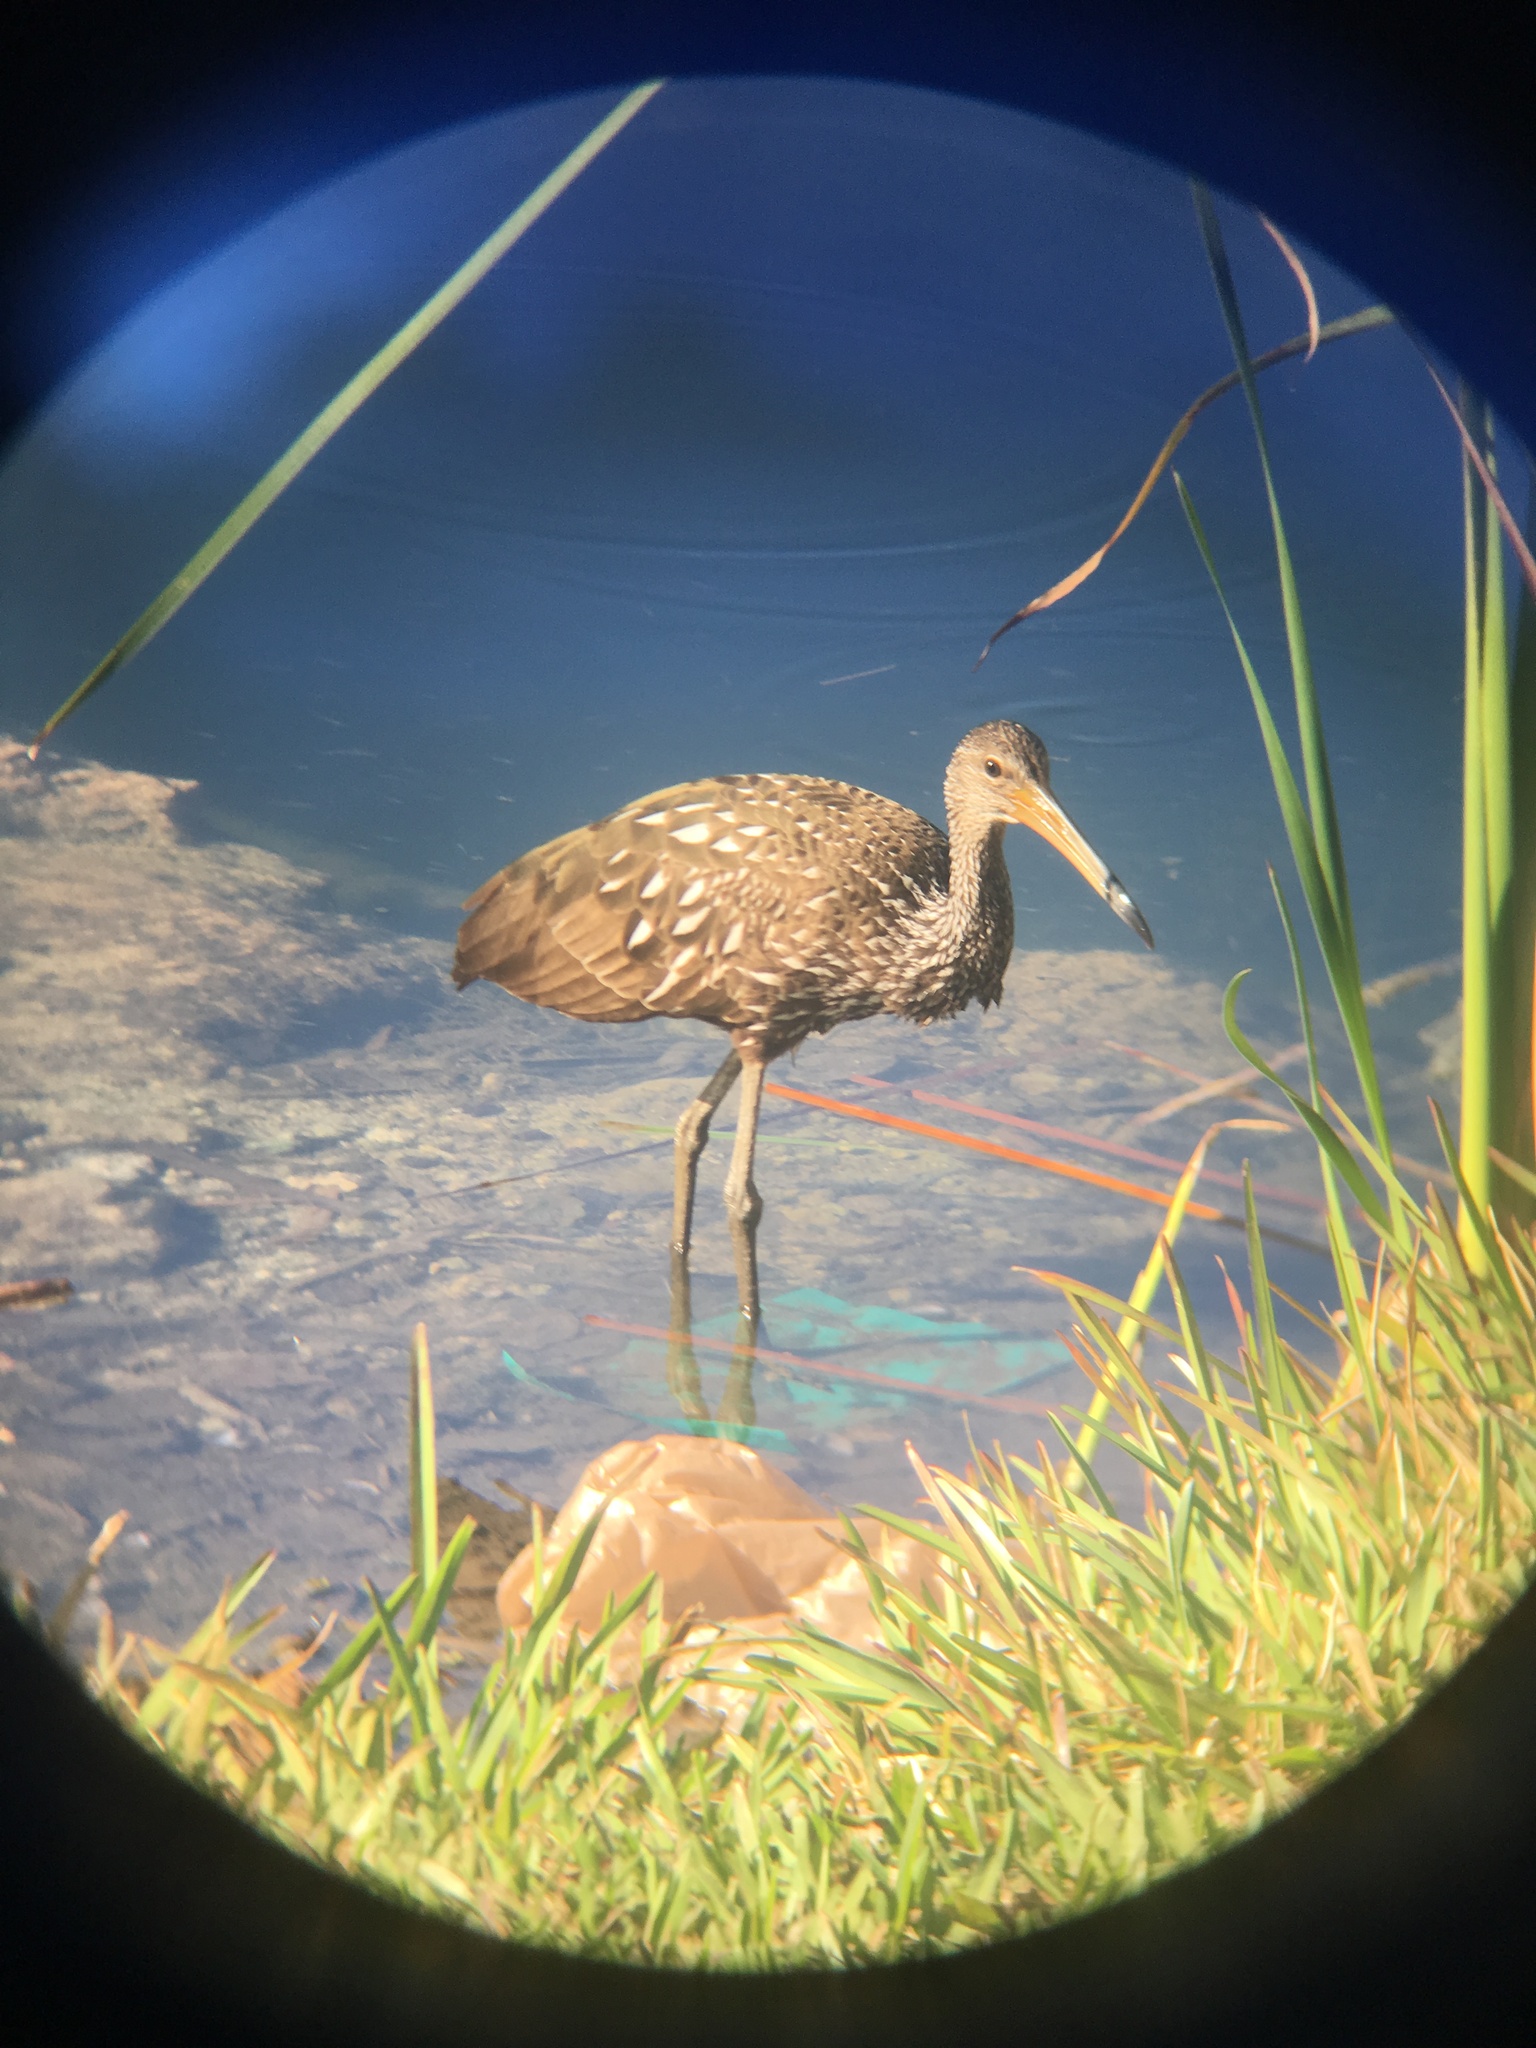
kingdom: Animalia
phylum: Chordata
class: Aves
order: Gruiformes
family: Aramidae
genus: Aramus
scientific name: Aramus guarauna
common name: Limpkin
